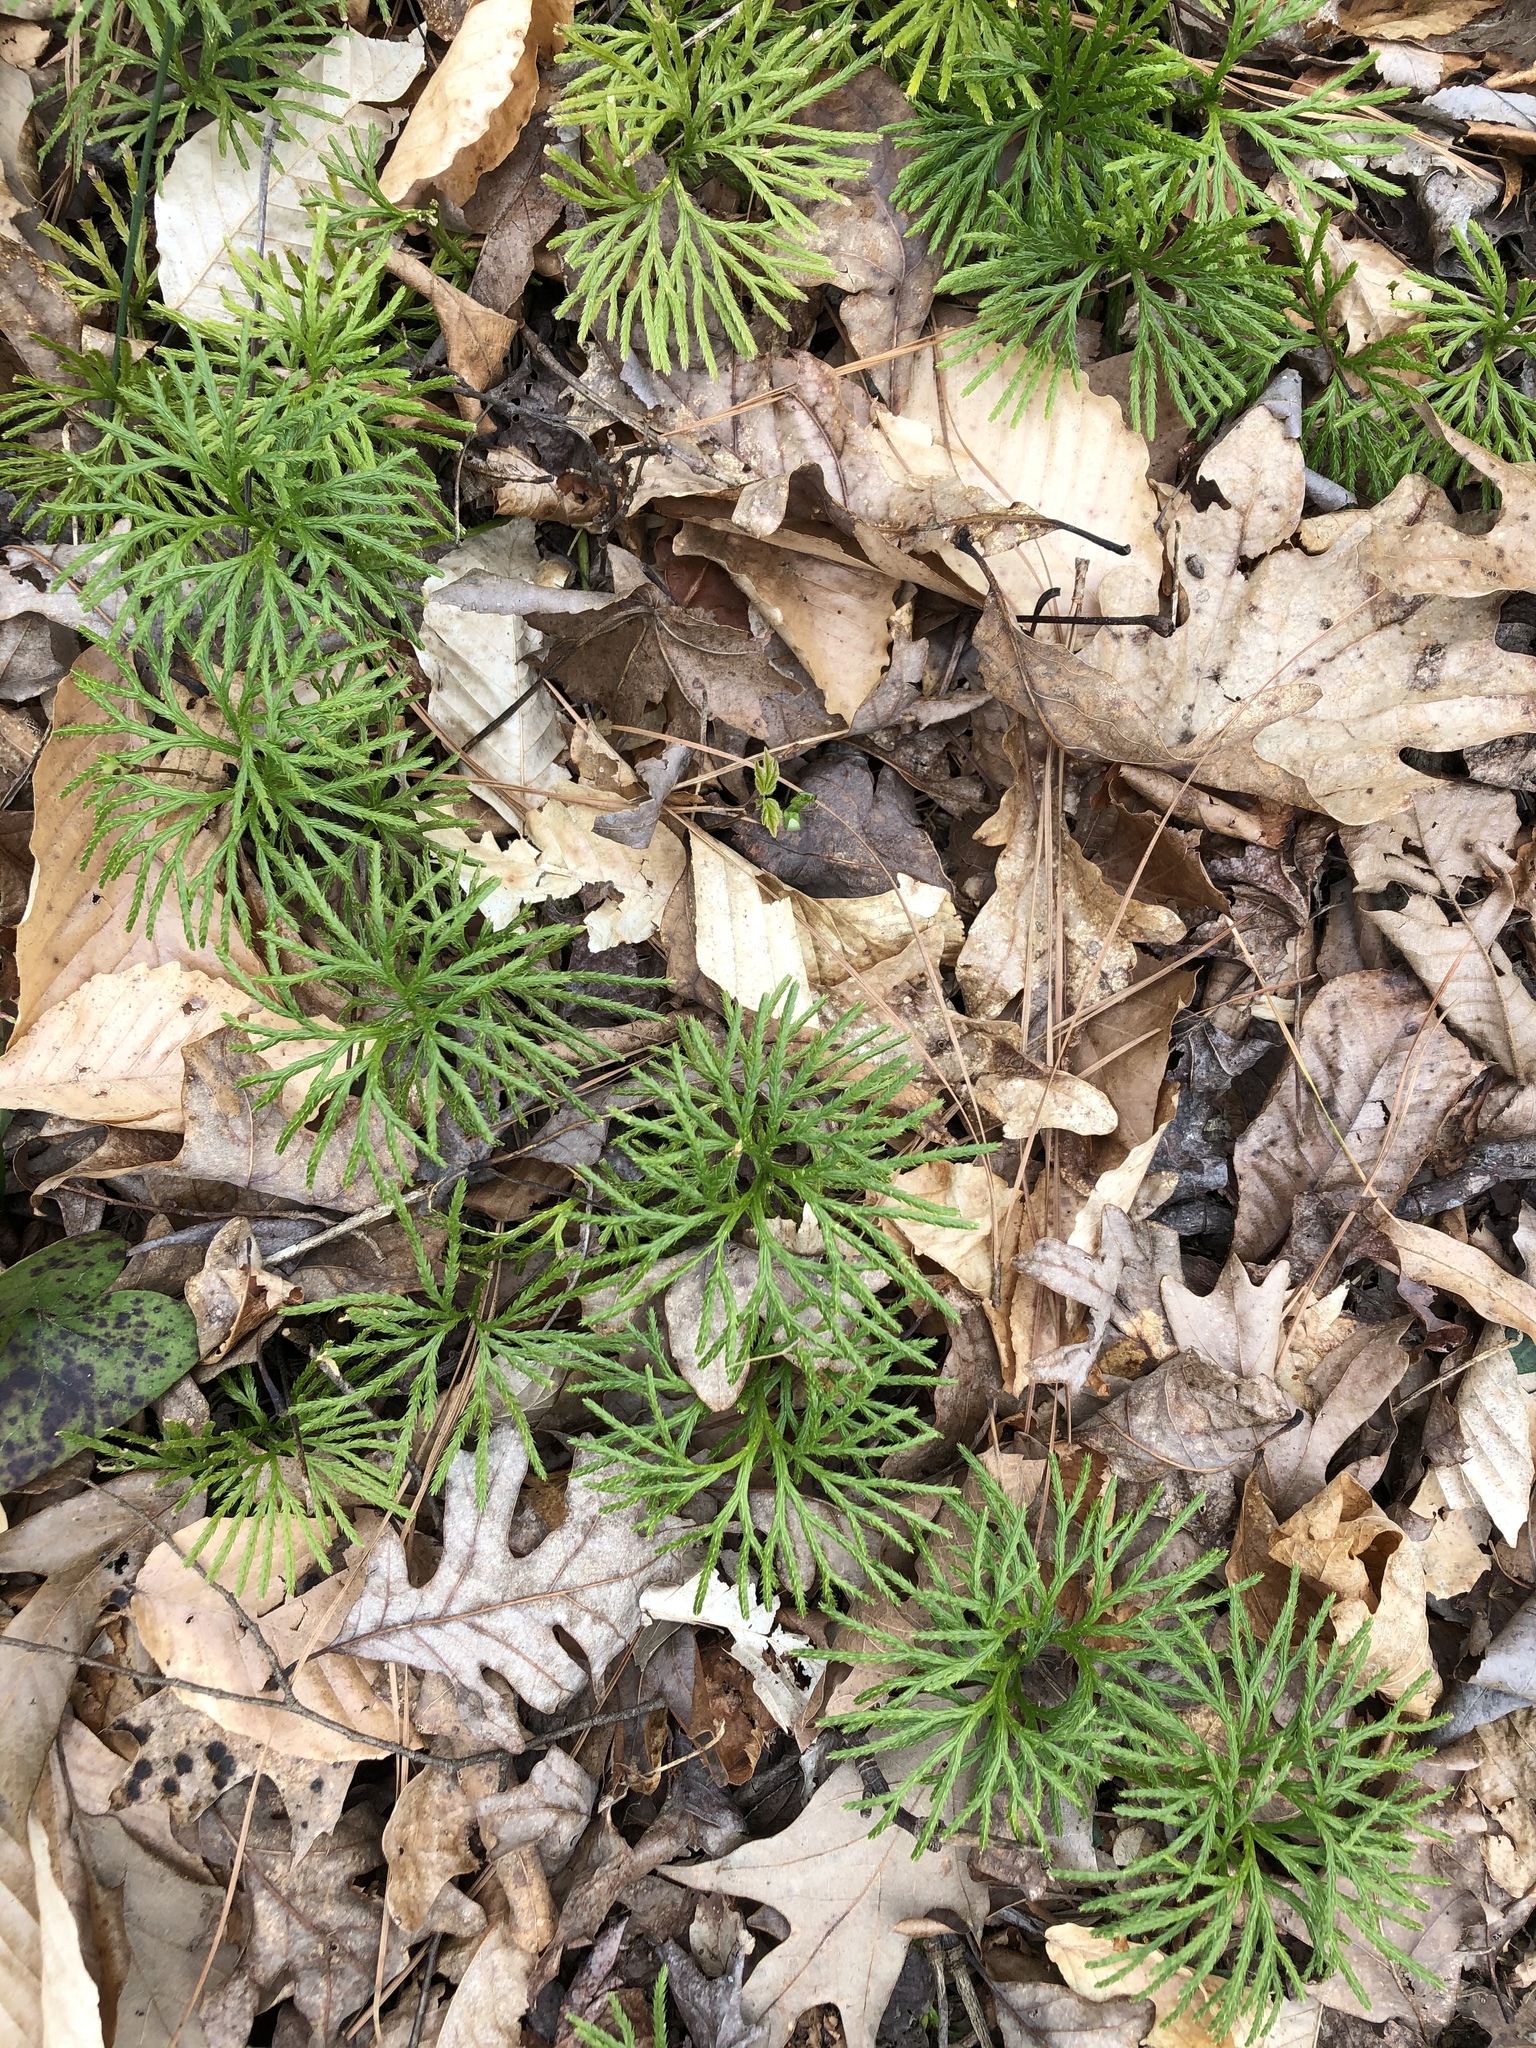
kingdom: Plantae
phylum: Tracheophyta
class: Lycopodiopsida
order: Lycopodiales
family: Lycopodiaceae
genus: Diphasiastrum
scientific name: Diphasiastrum digitatum
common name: Southern running-pine
